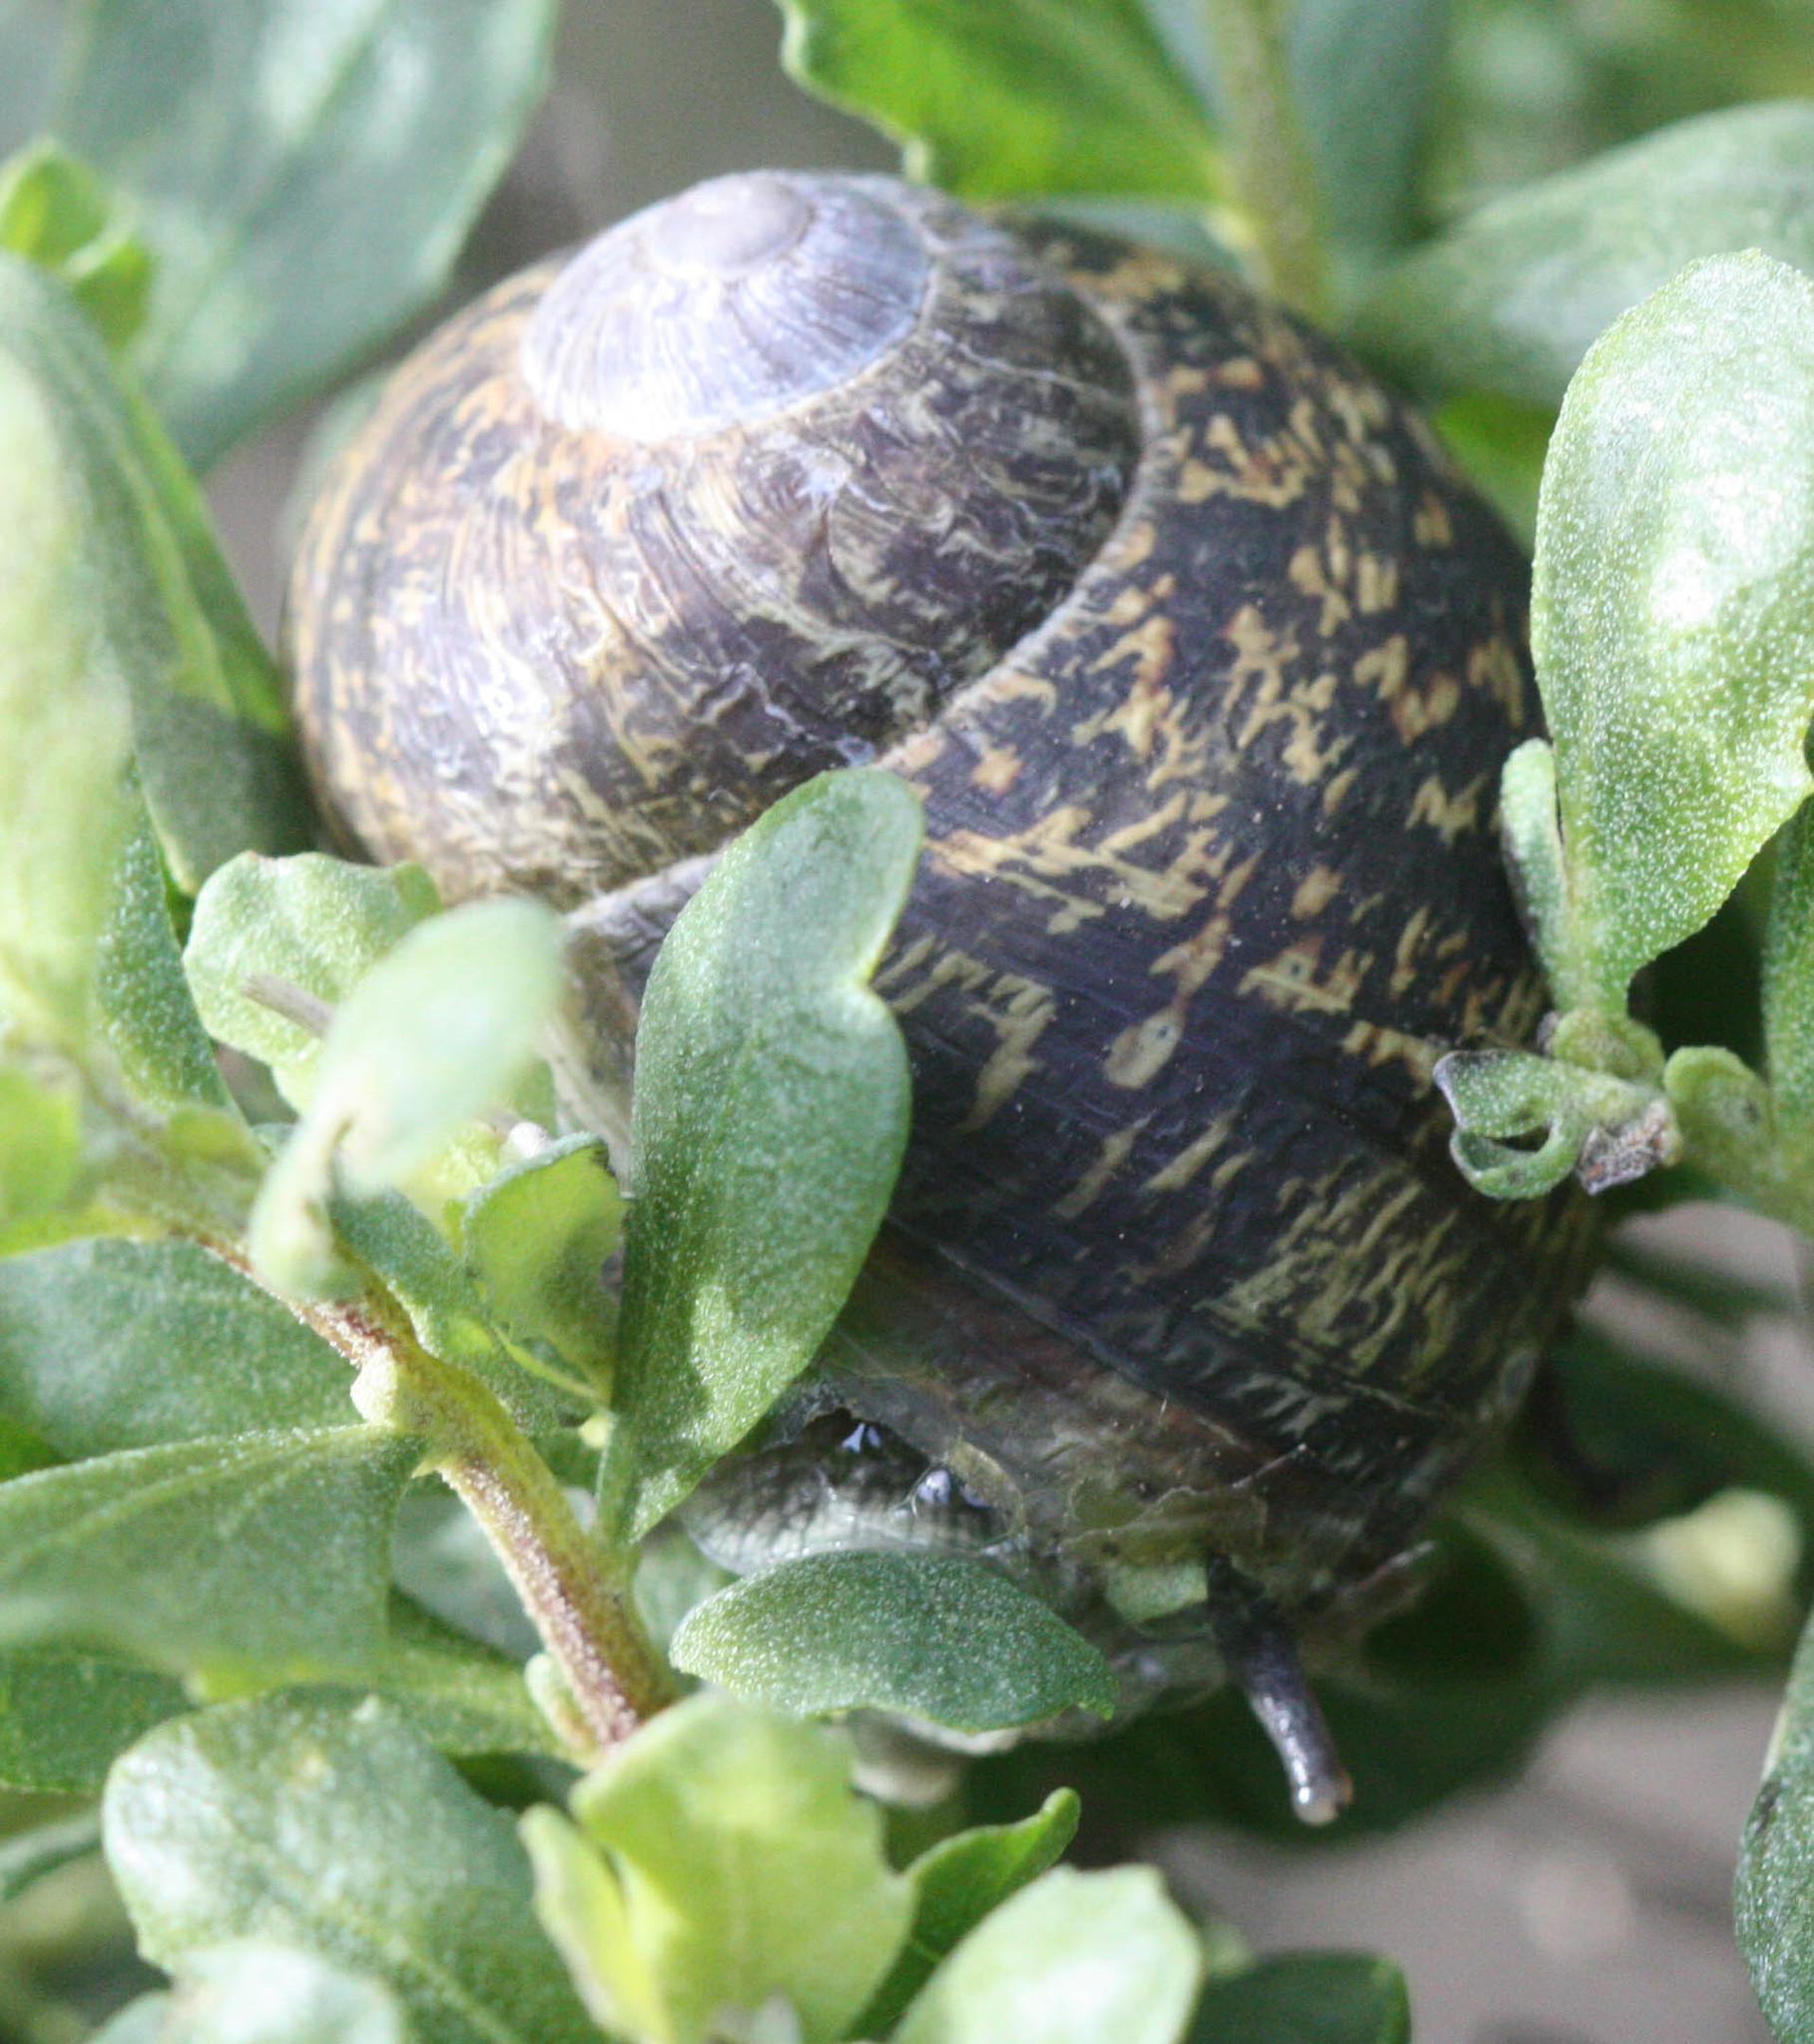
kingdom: Animalia
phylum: Mollusca
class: Gastropoda
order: Stylommatophora
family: Helicidae
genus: Cornu
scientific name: Cornu aspersum
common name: Brown garden snail
